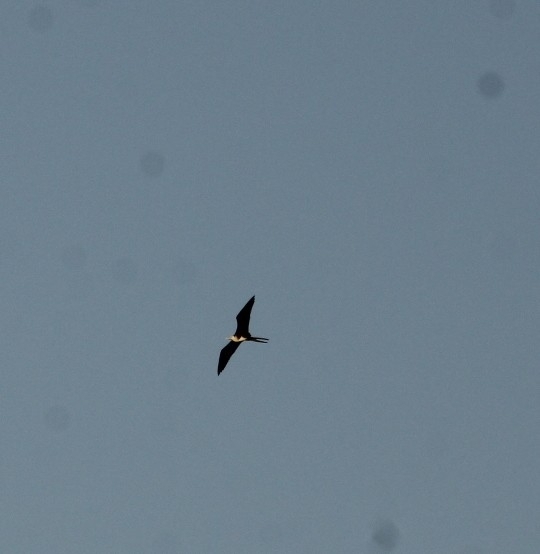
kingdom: Animalia
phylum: Chordata
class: Aves
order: Suliformes
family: Fregatidae
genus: Fregata
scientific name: Fregata magnificens
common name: Magnificent frigatebird
